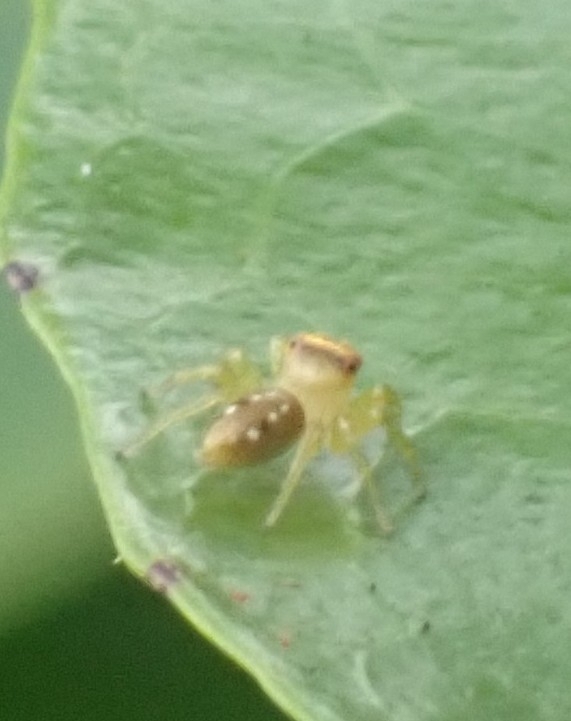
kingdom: Animalia
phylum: Arthropoda
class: Arachnida
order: Araneae
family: Salticidae
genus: Cytaea
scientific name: Cytaea dispalans
